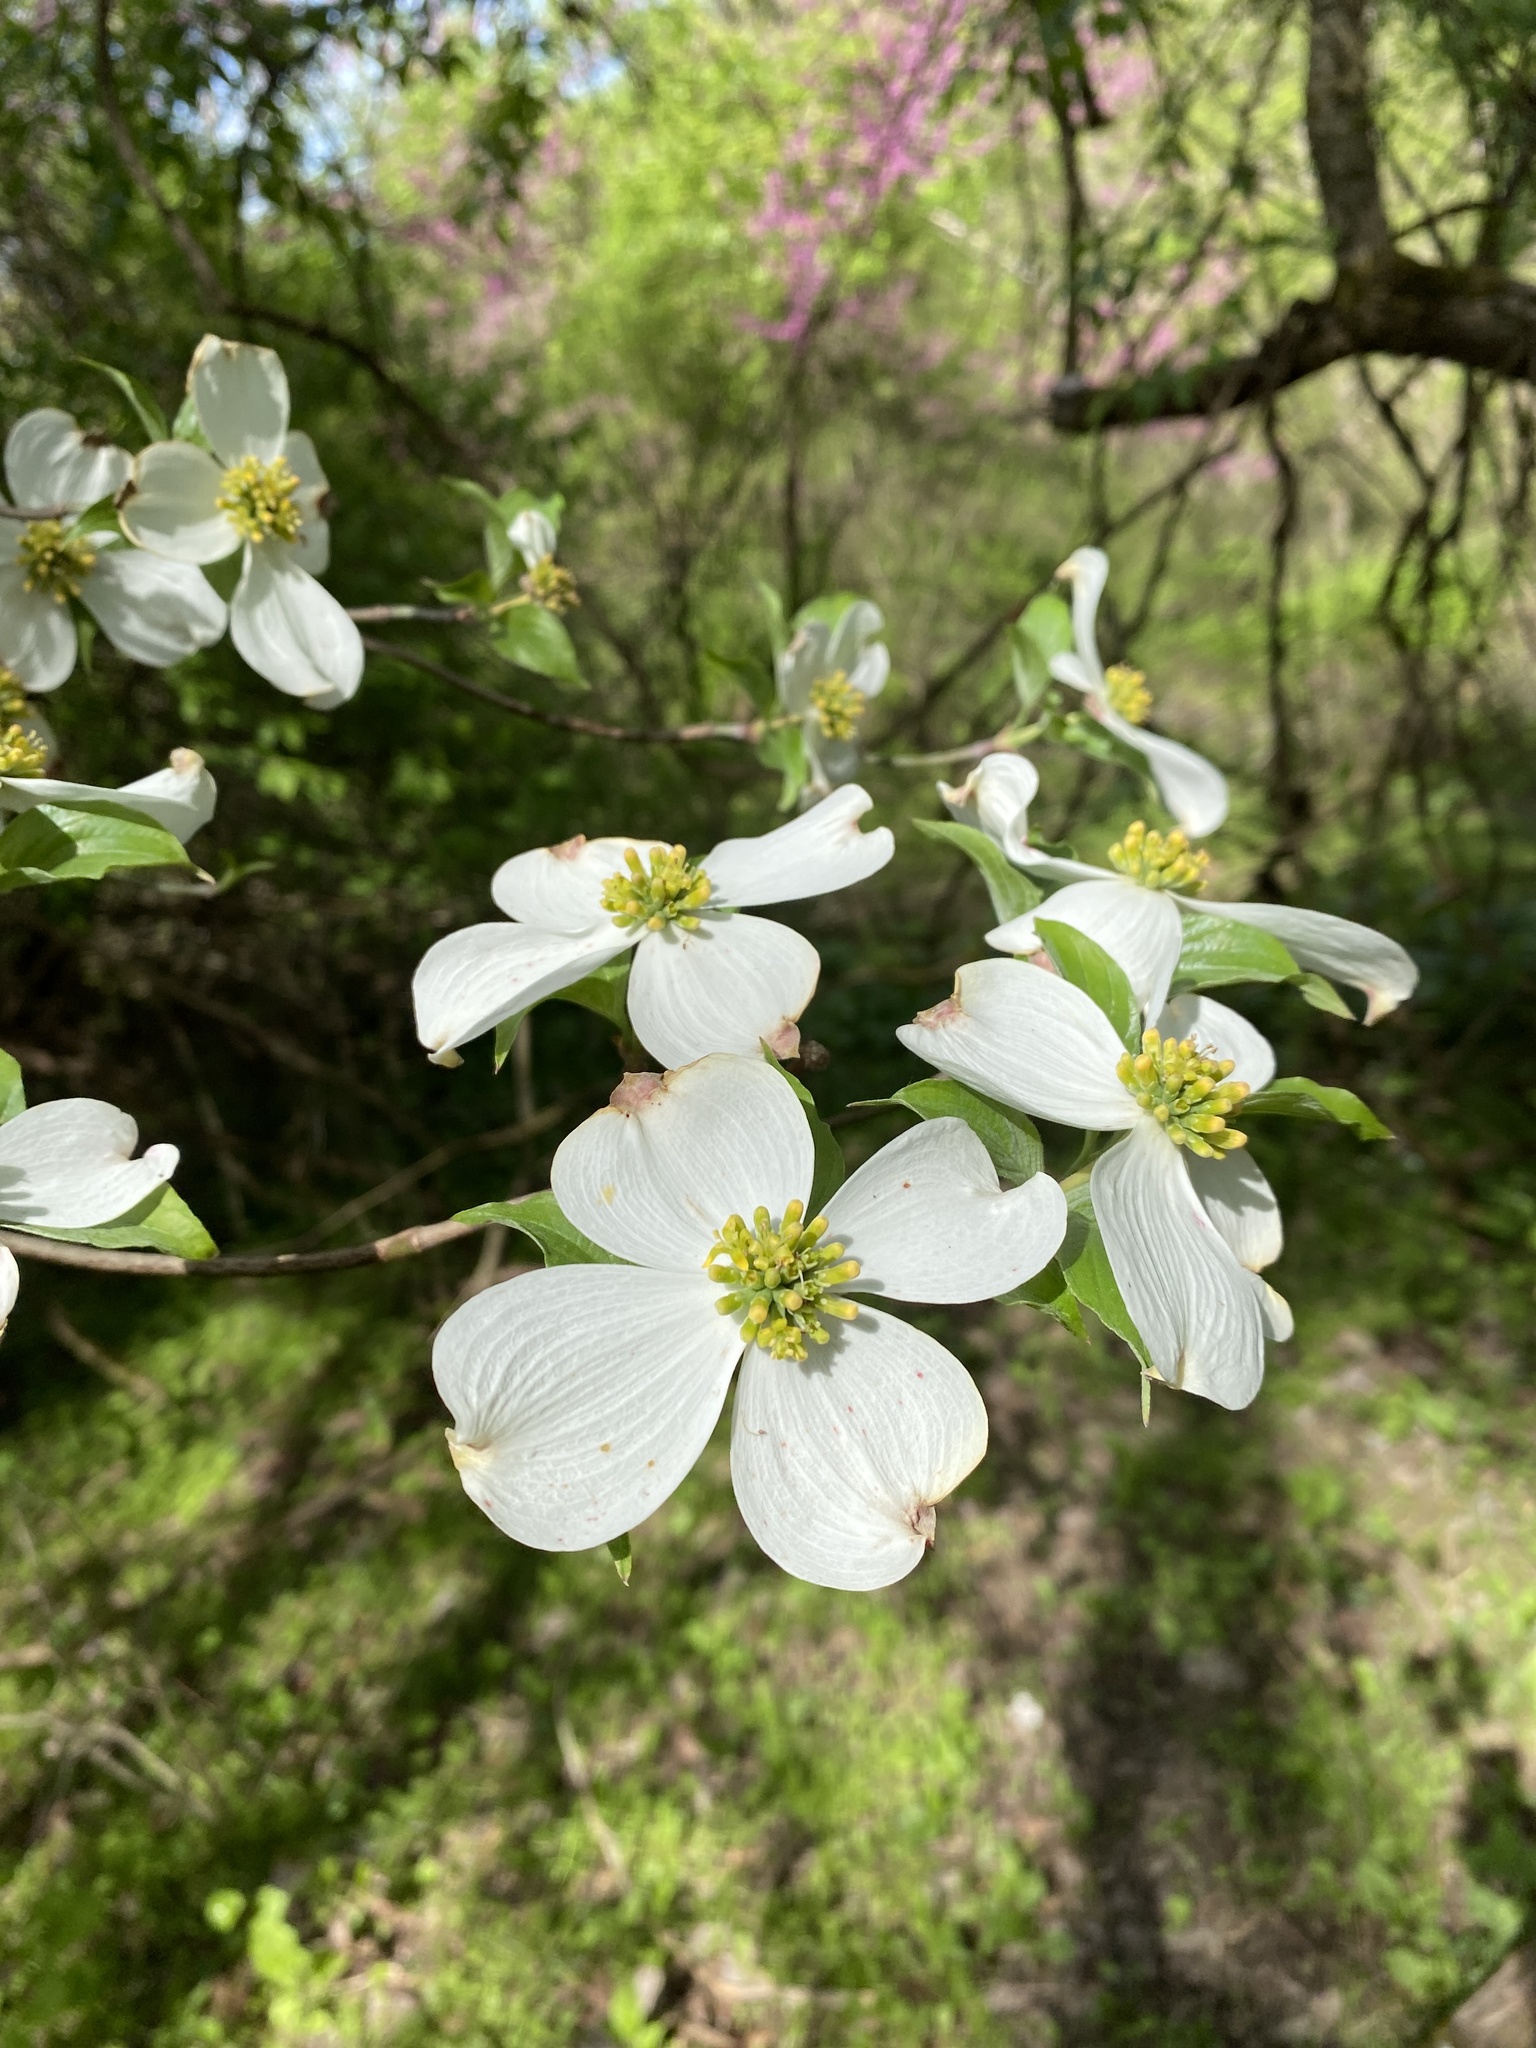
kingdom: Plantae
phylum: Tracheophyta
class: Magnoliopsida
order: Cornales
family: Cornaceae
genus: Cornus
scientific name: Cornus florida
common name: Flowering dogwood
